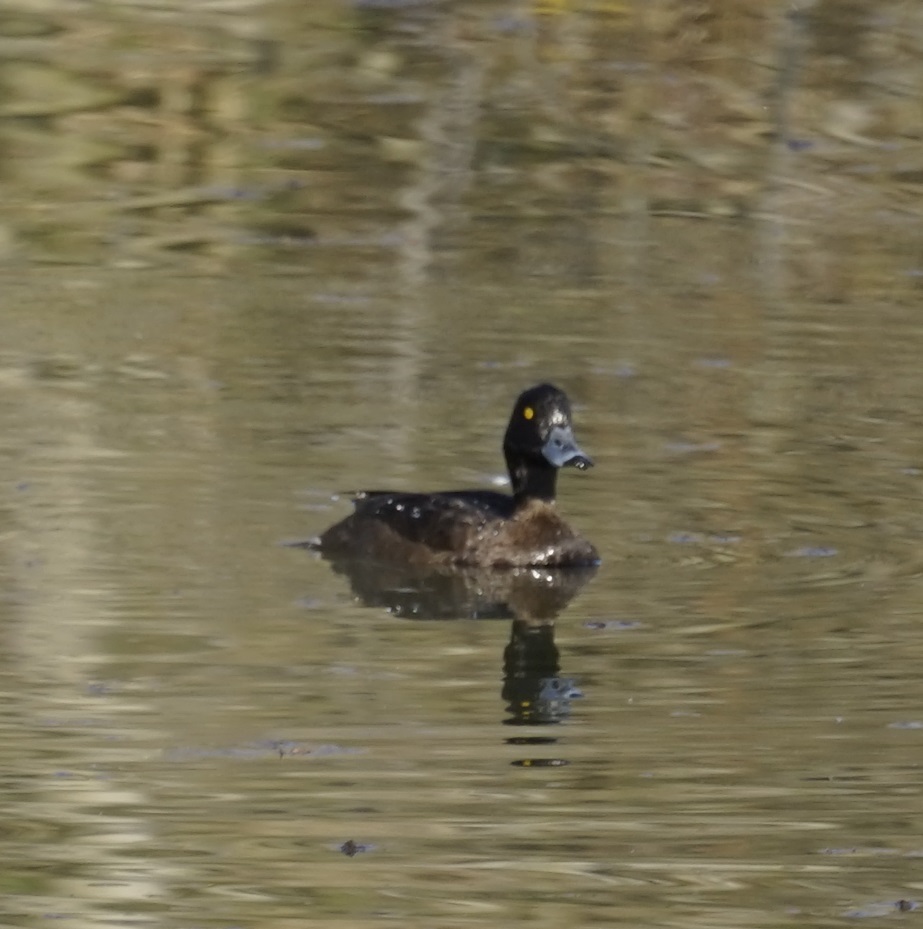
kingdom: Animalia
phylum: Chordata
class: Aves
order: Anseriformes
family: Anatidae
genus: Aythya
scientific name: Aythya fuligula
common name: Tufted duck
